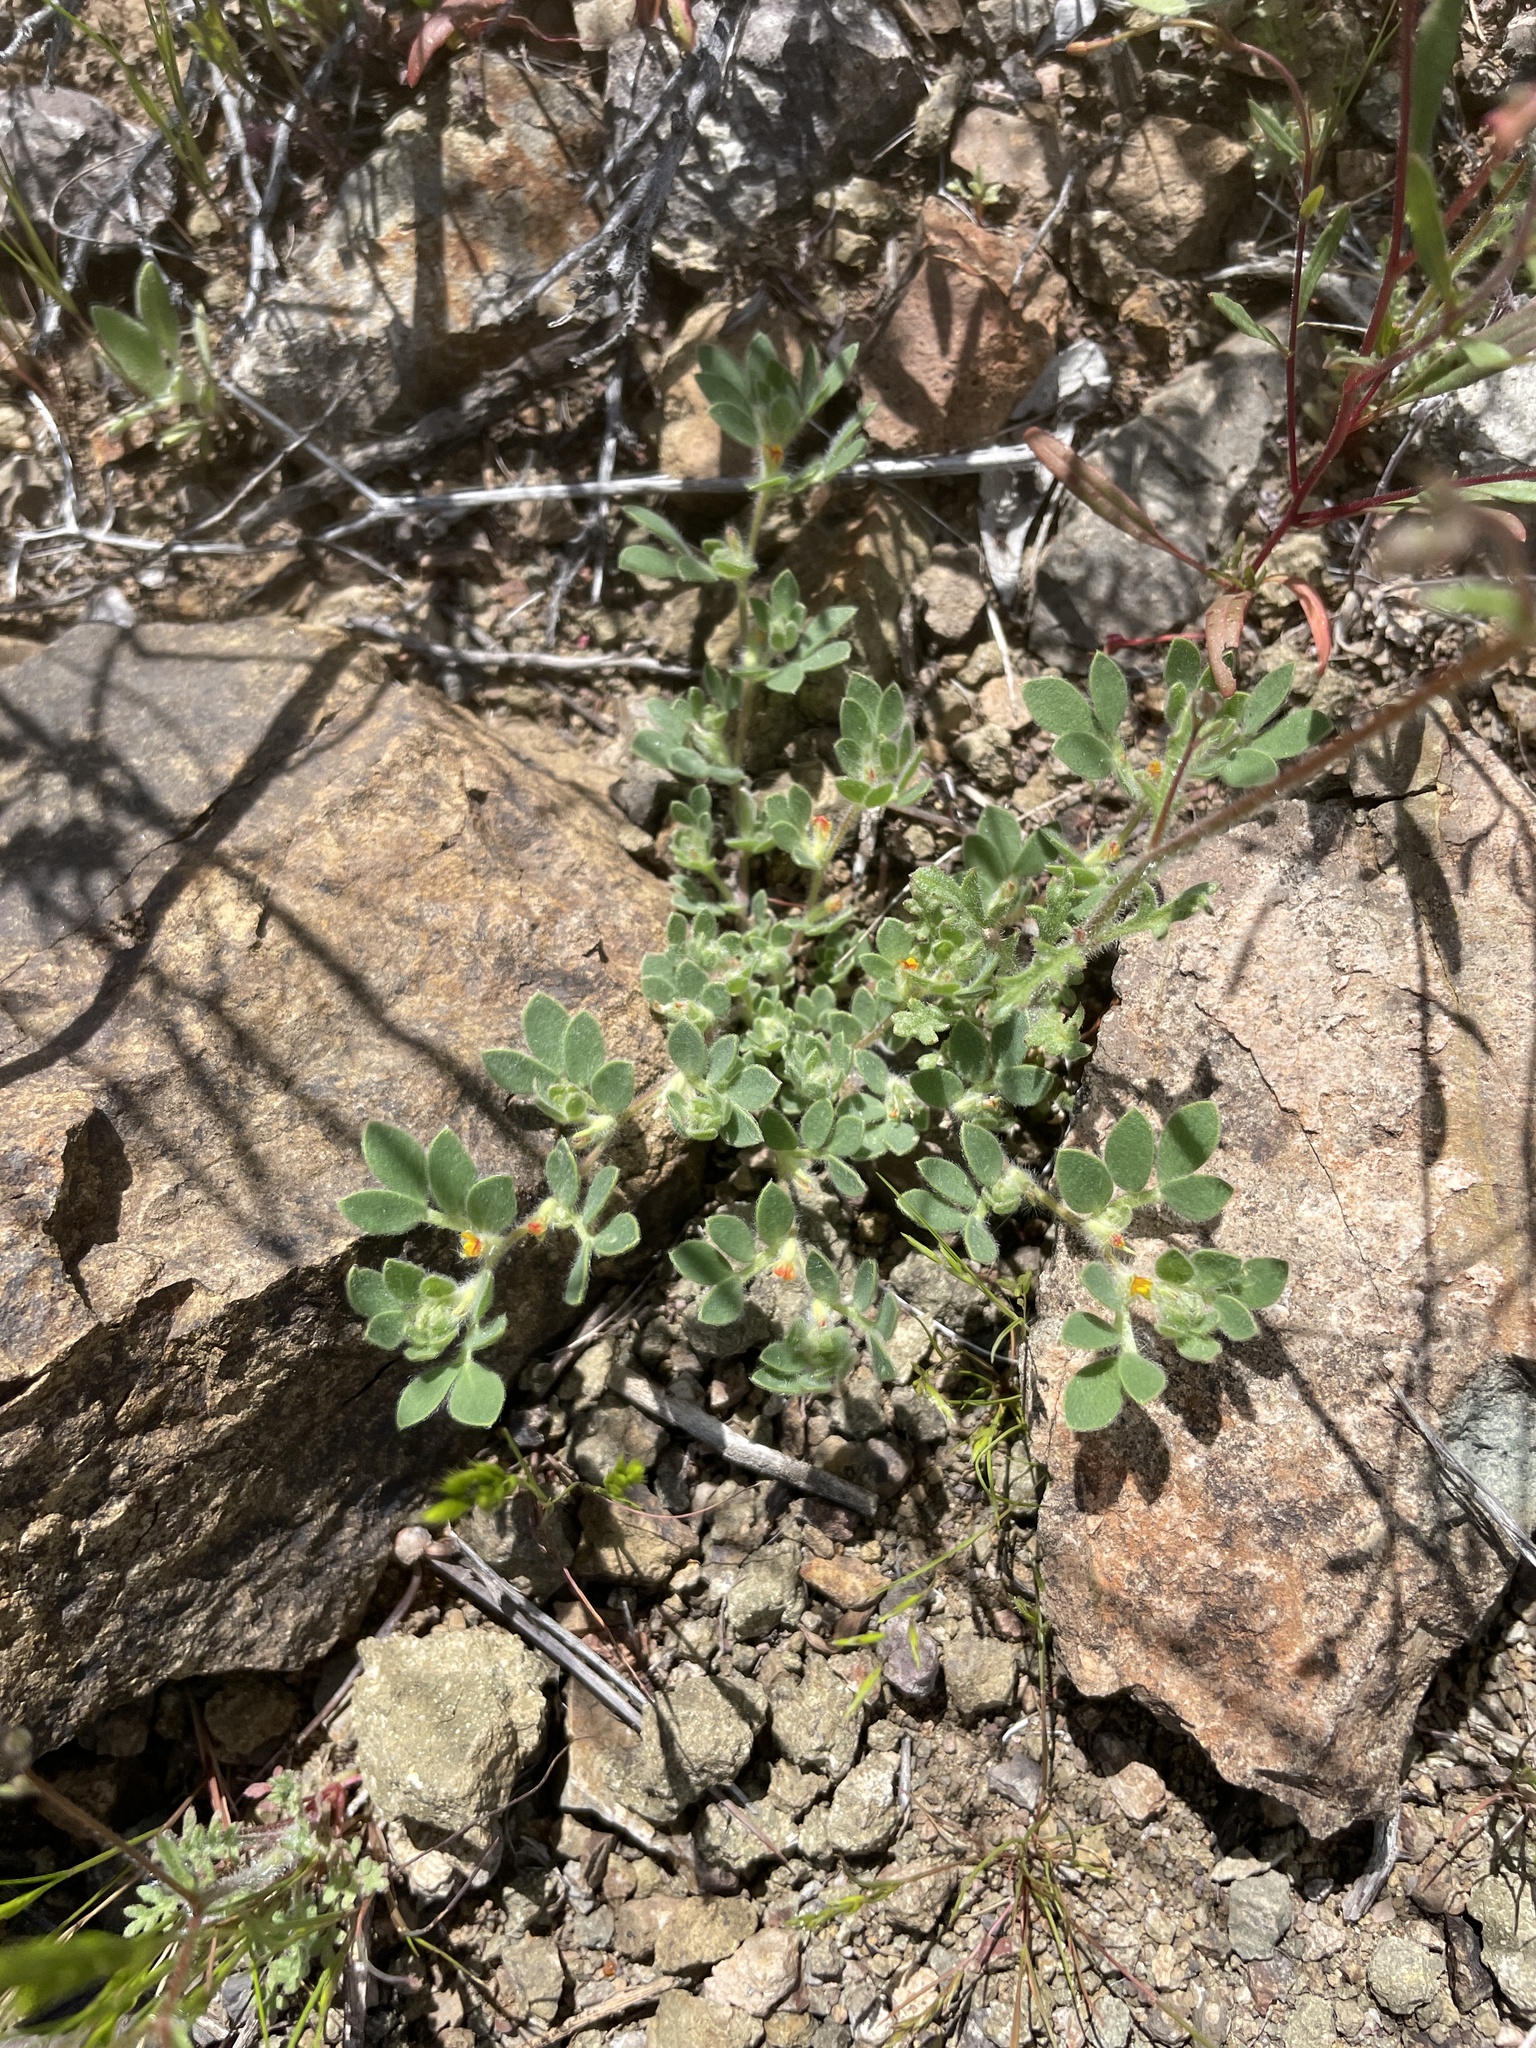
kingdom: Plantae
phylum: Tracheophyta
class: Magnoliopsida
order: Fabales
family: Fabaceae
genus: Acmispon
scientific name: Acmispon brachycarpus
